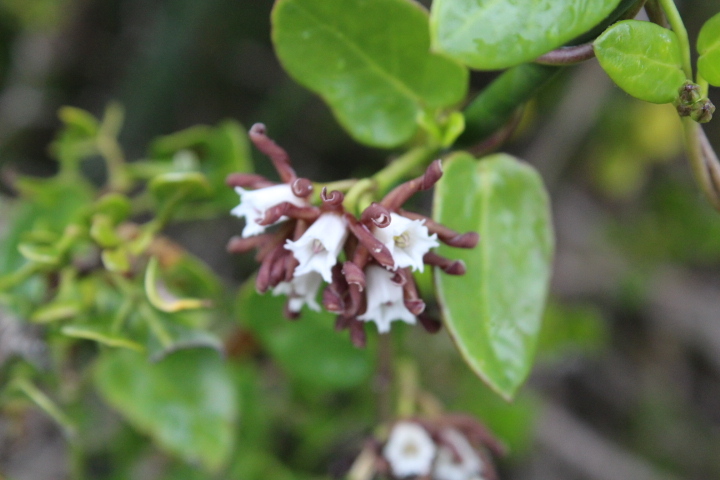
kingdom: Plantae
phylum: Tracheophyta
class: Magnoliopsida
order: Gentianales
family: Apocynaceae
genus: Cynanchum
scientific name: Cynanchum africanum
